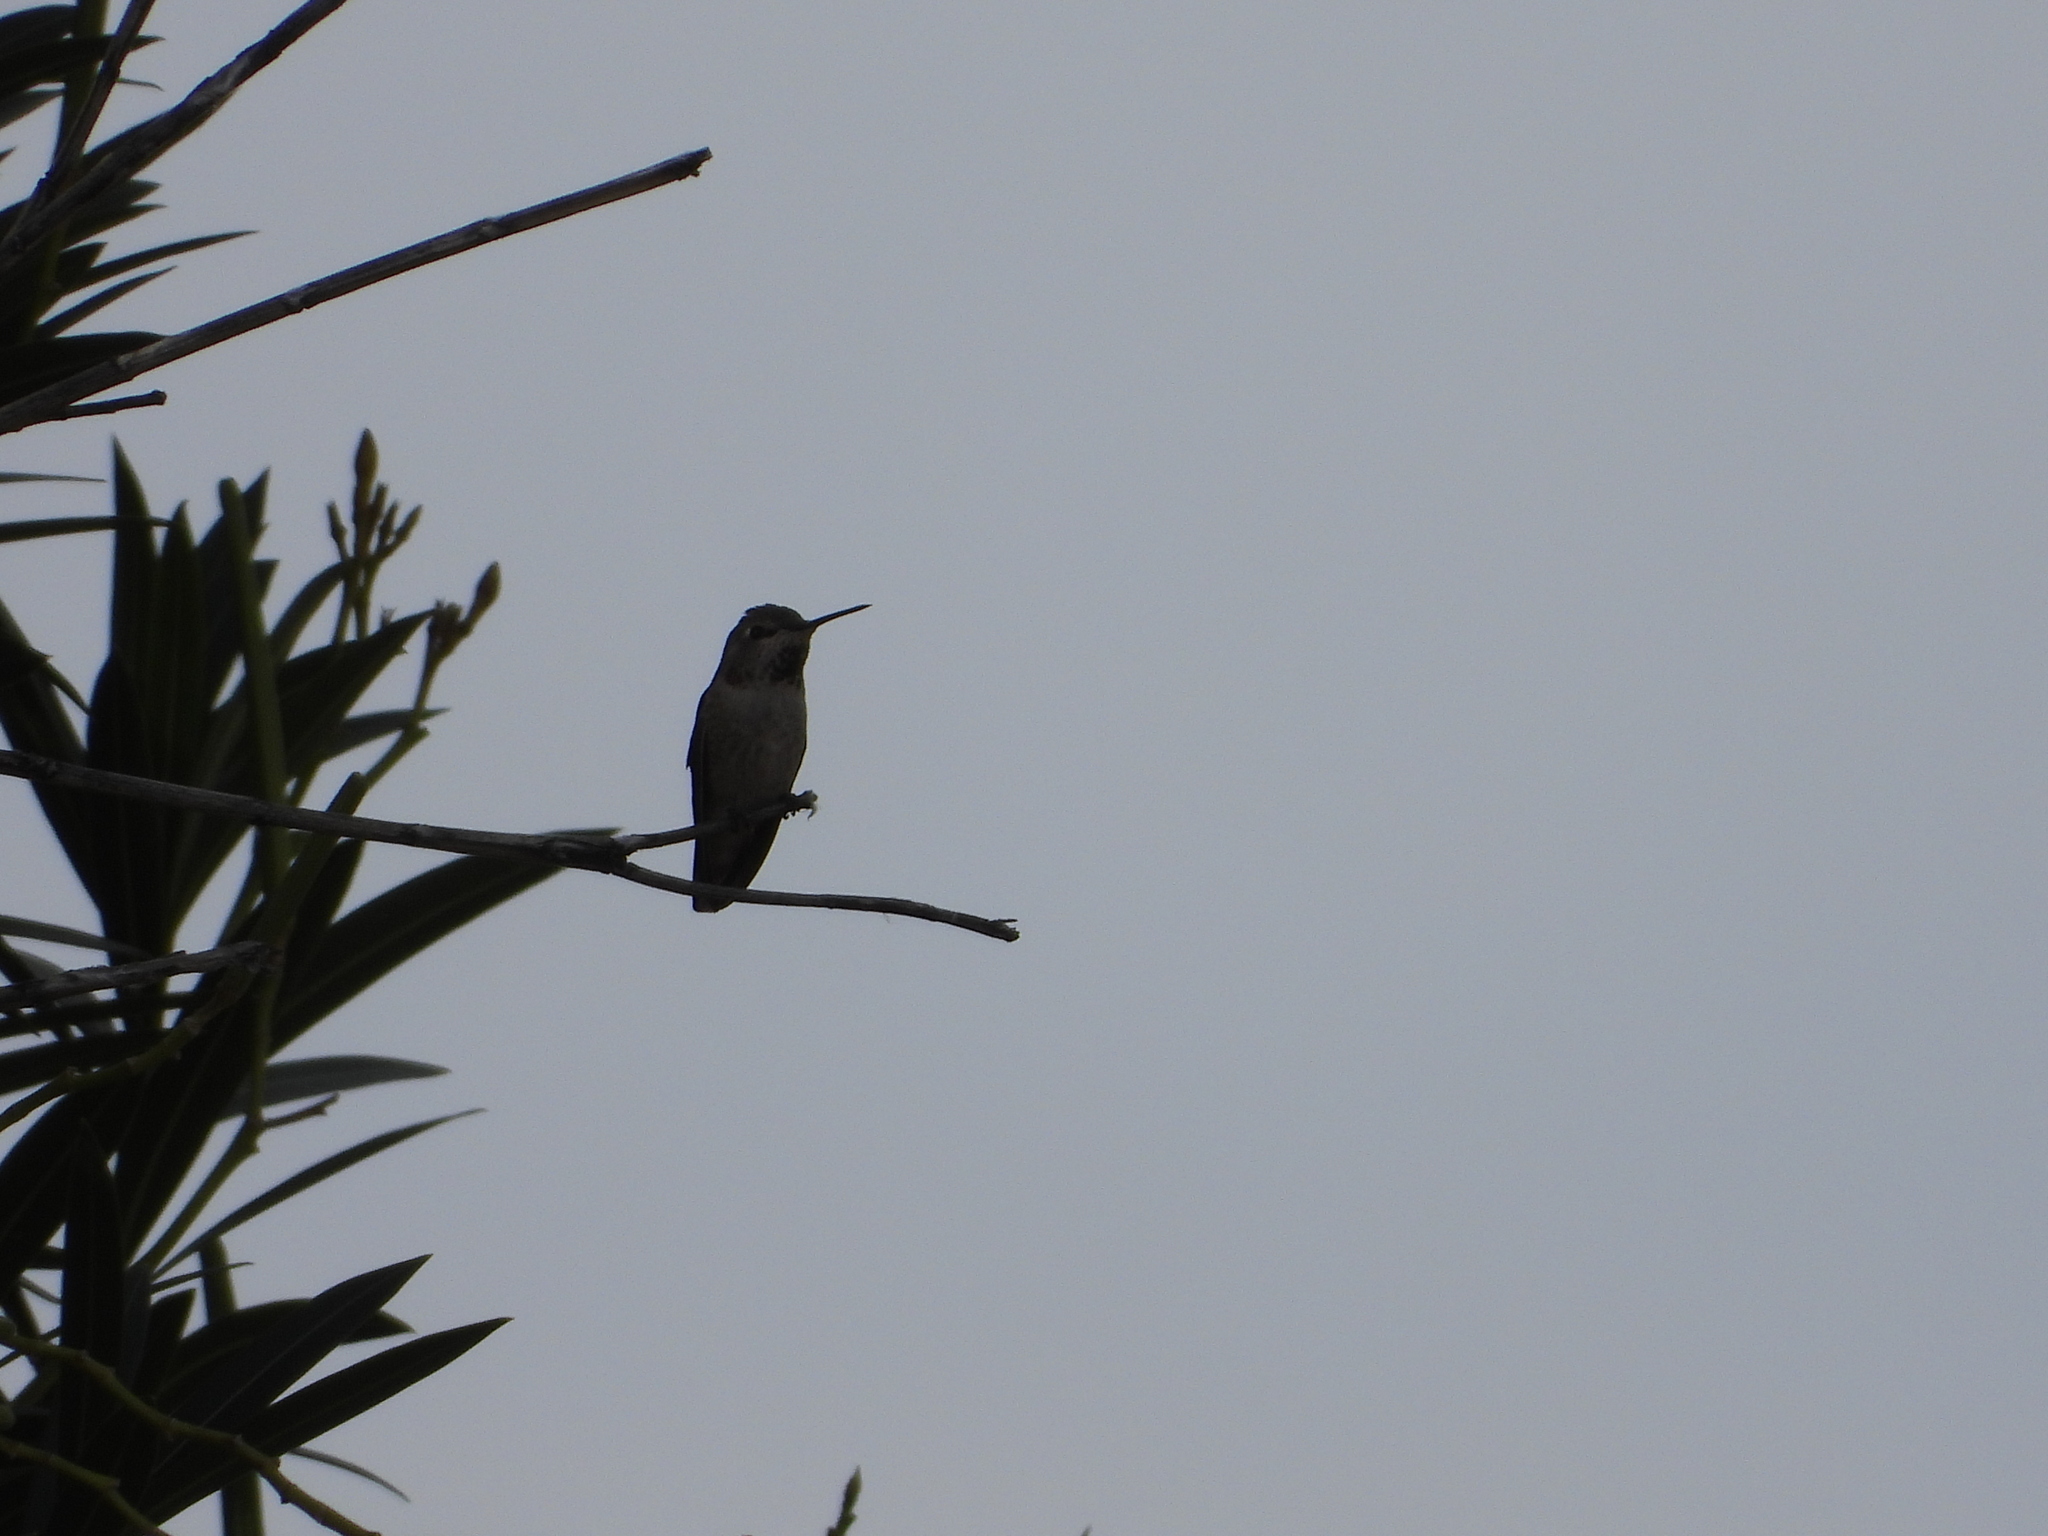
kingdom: Animalia
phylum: Chordata
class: Aves
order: Apodiformes
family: Trochilidae
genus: Calypte
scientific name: Calypte anna
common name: Anna's hummingbird
